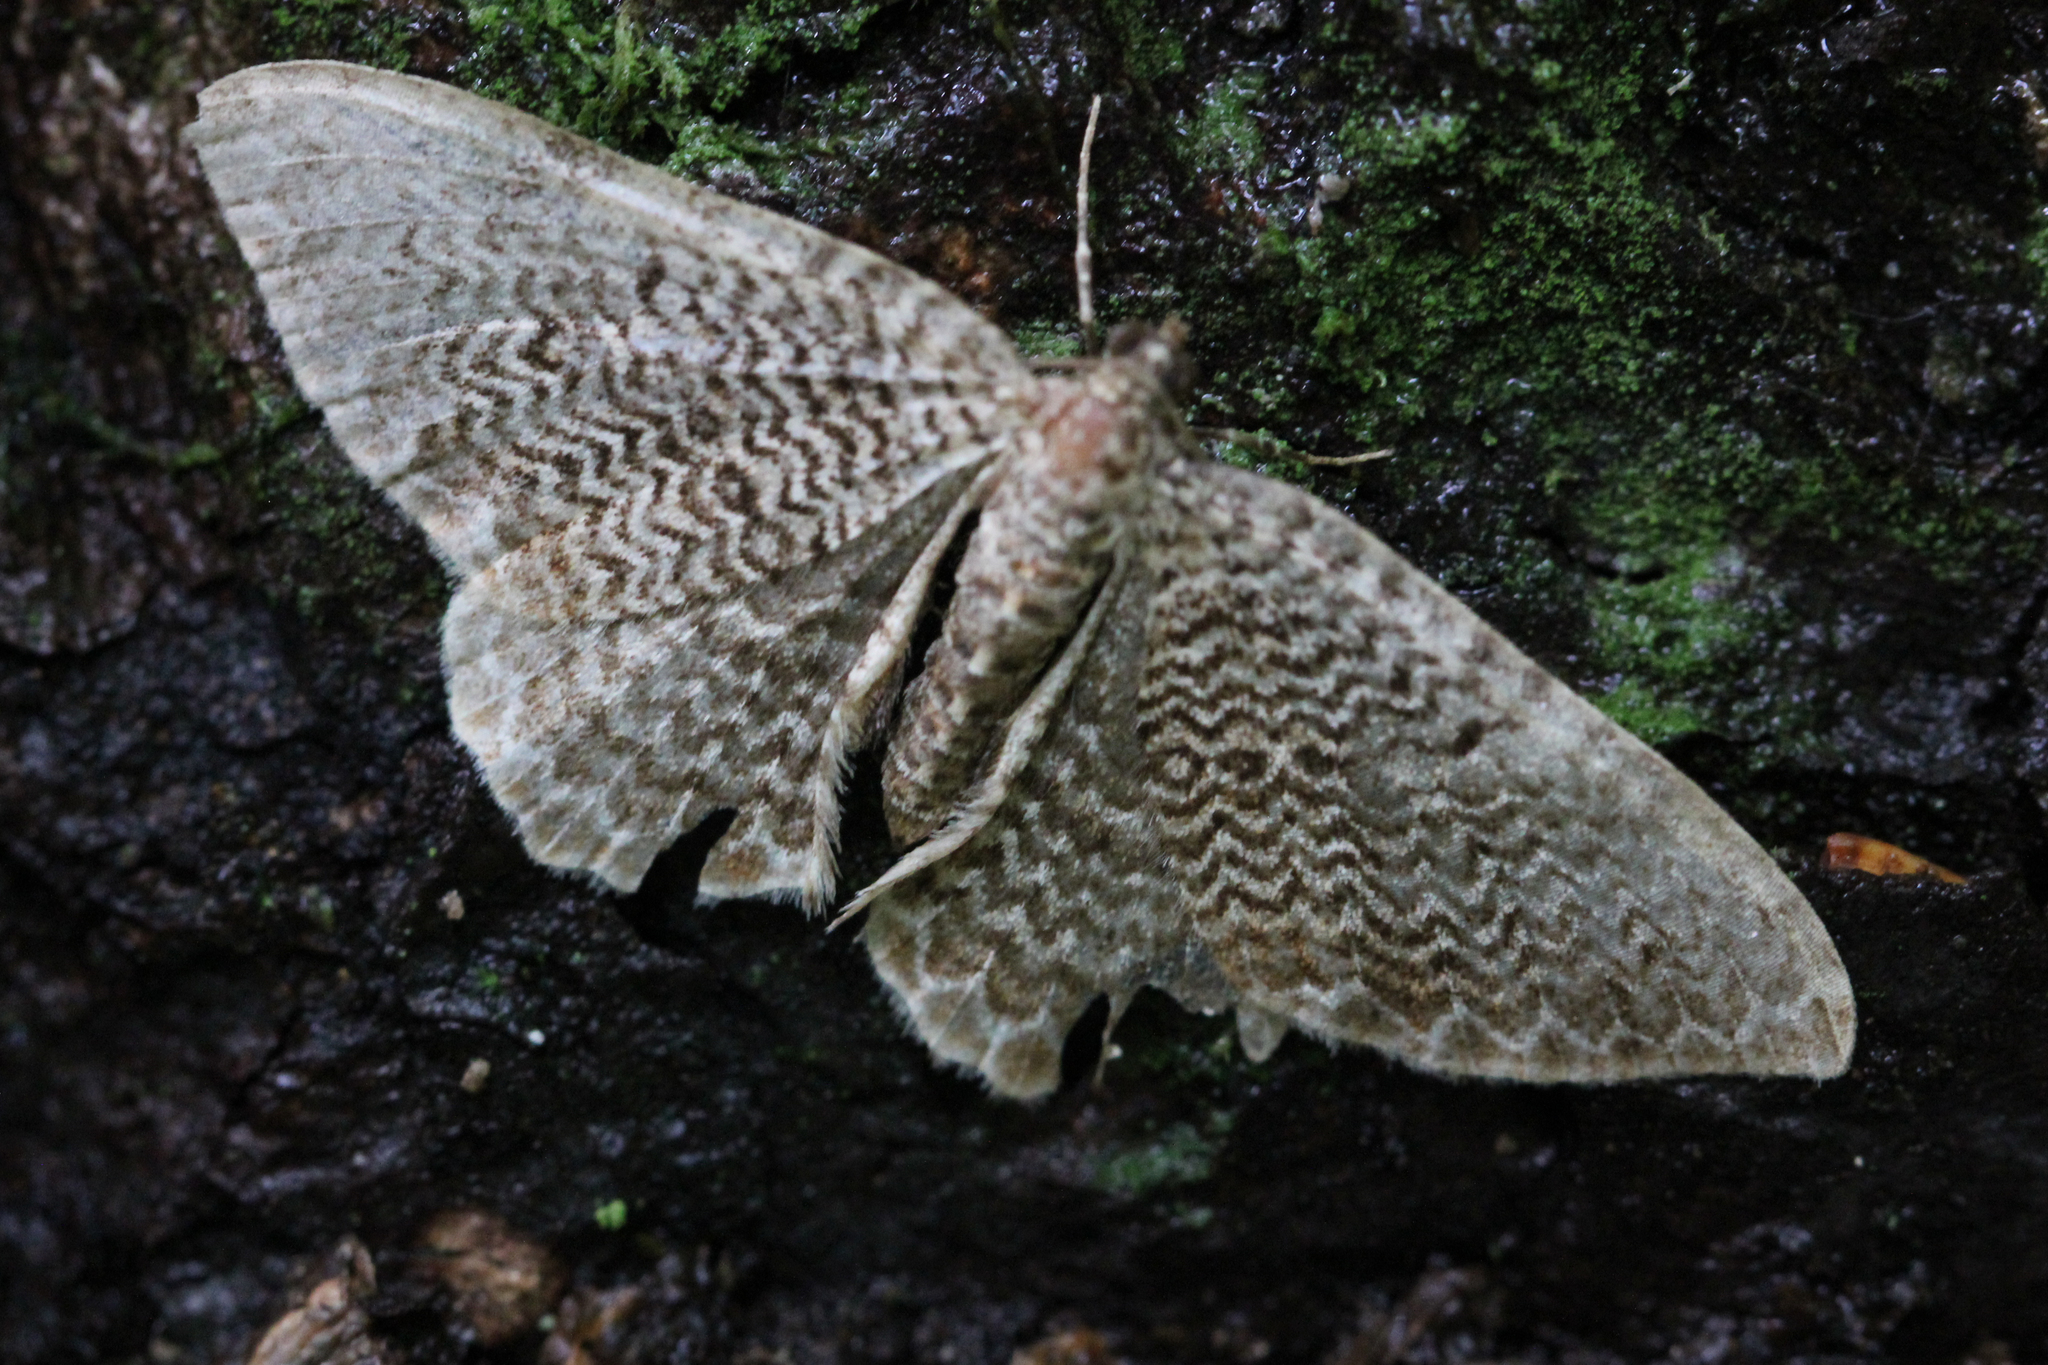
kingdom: Animalia
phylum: Arthropoda
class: Insecta
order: Lepidoptera
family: Geometridae
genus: Rheumaptera
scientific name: Rheumaptera prunivorata
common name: Cherry scallop shell moth
